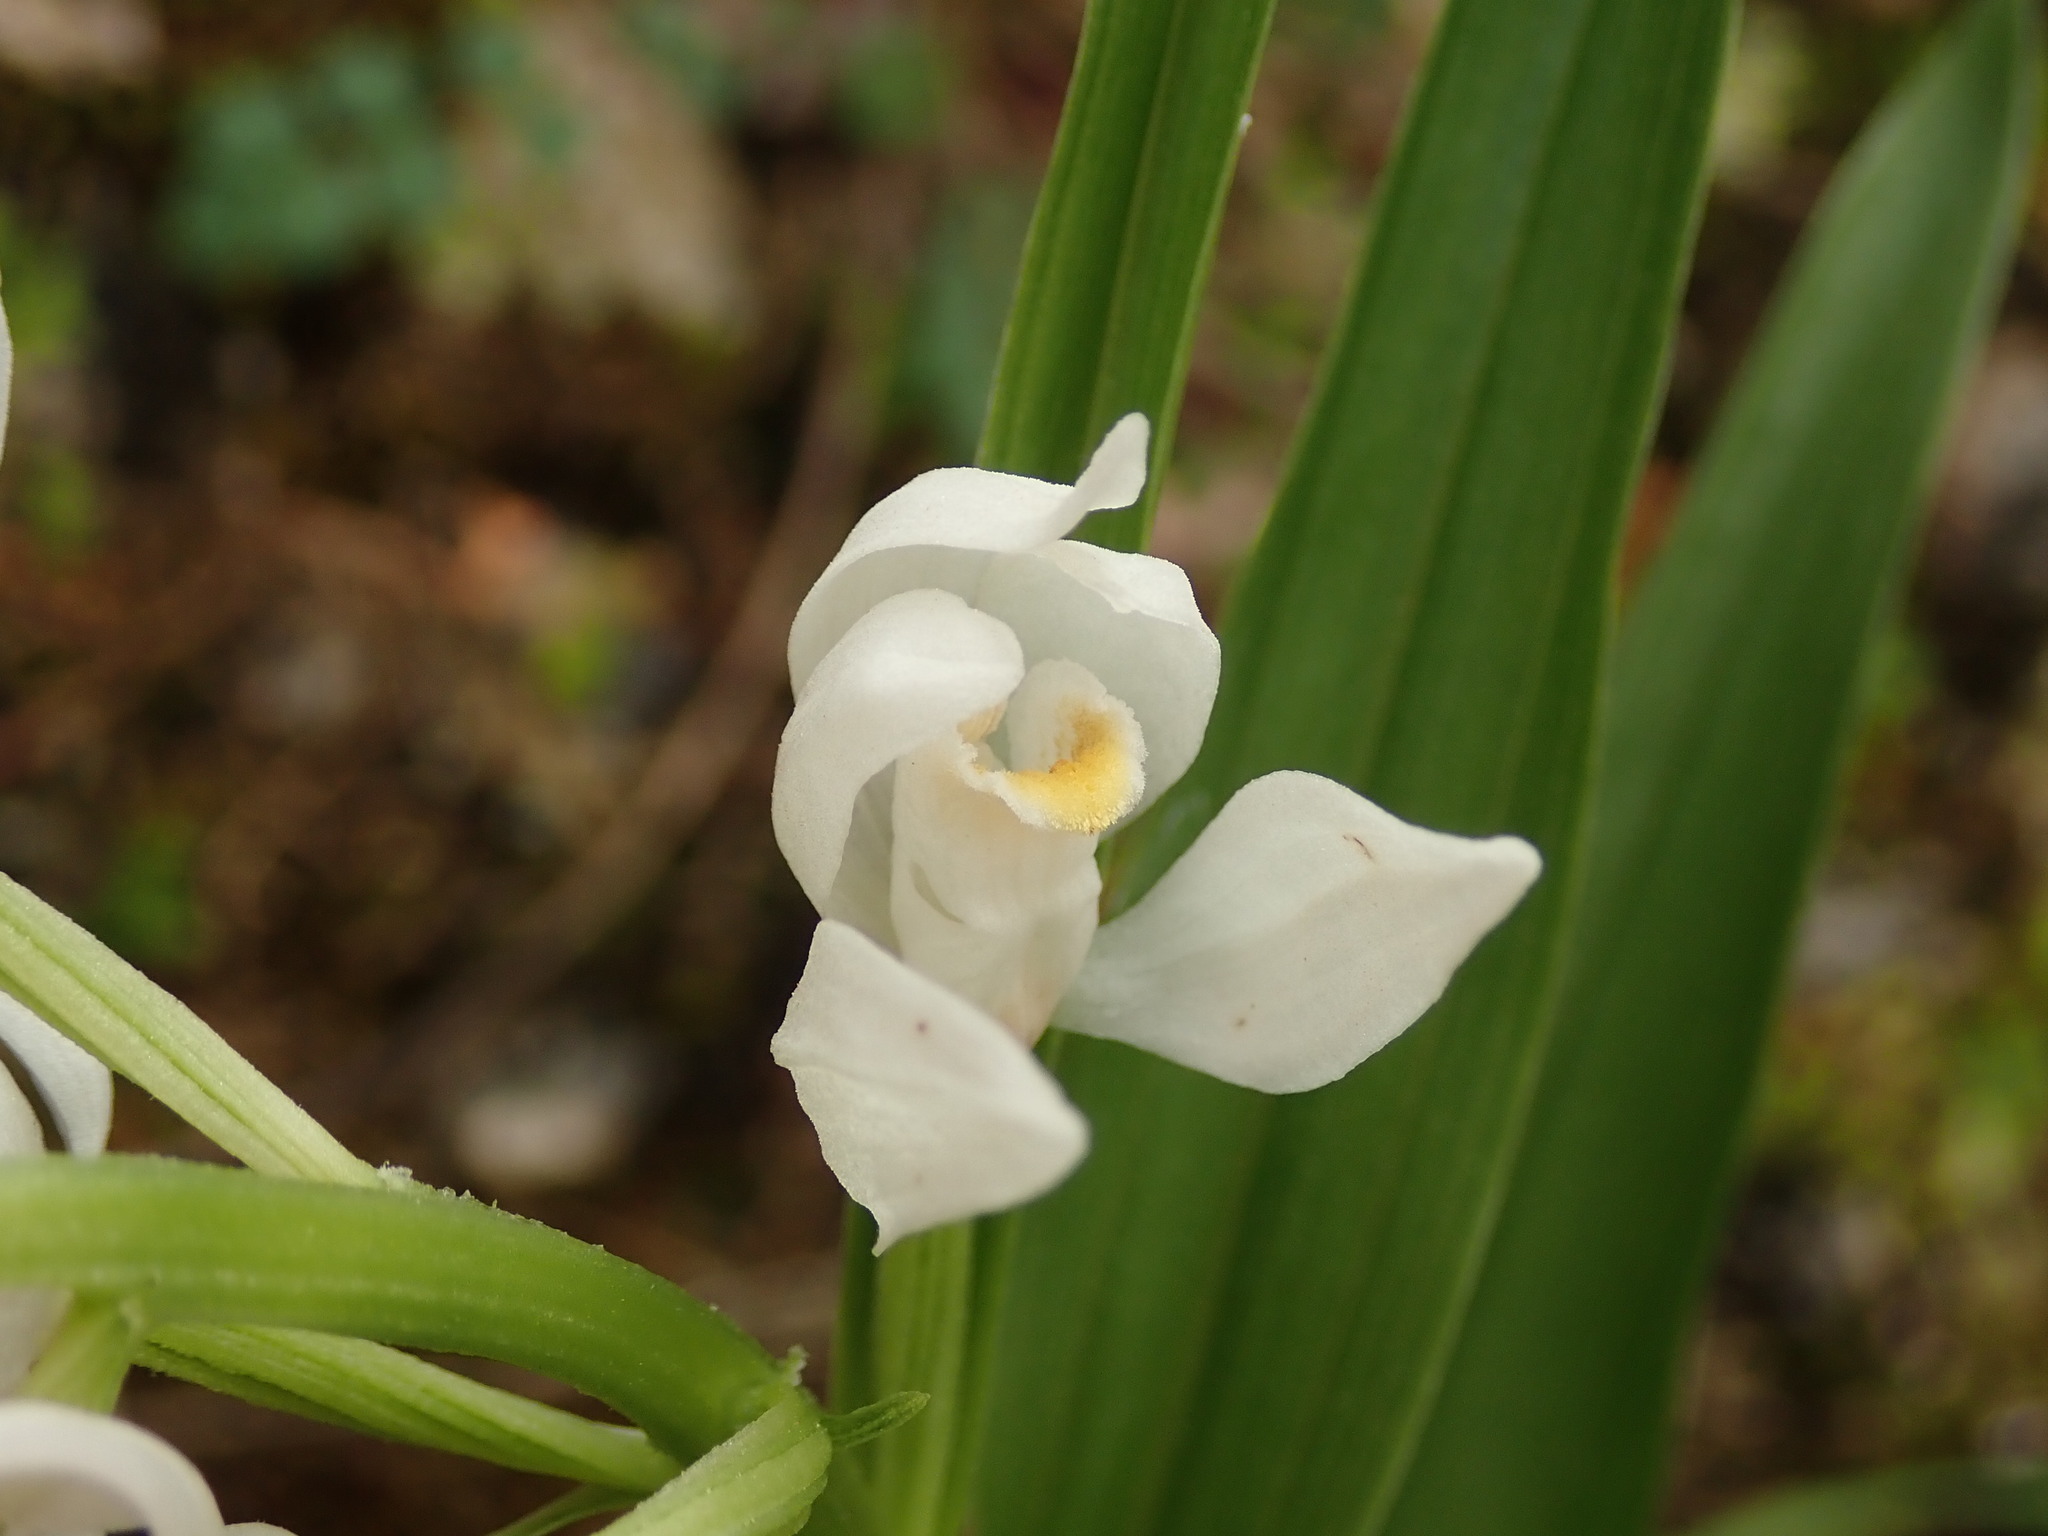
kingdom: Plantae
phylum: Tracheophyta
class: Liliopsida
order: Asparagales
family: Orchidaceae
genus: Cephalanthera
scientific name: Cephalanthera longifolia
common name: Narrow-leaved helleborine
